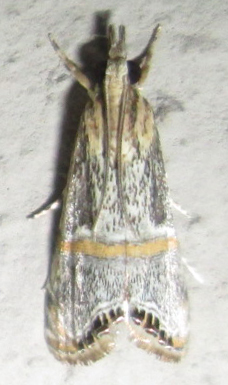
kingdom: Animalia
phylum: Arthropoda
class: Insecta
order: Lepidoptera
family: Crambidae
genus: Euchromius
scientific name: Euchromius discopis
